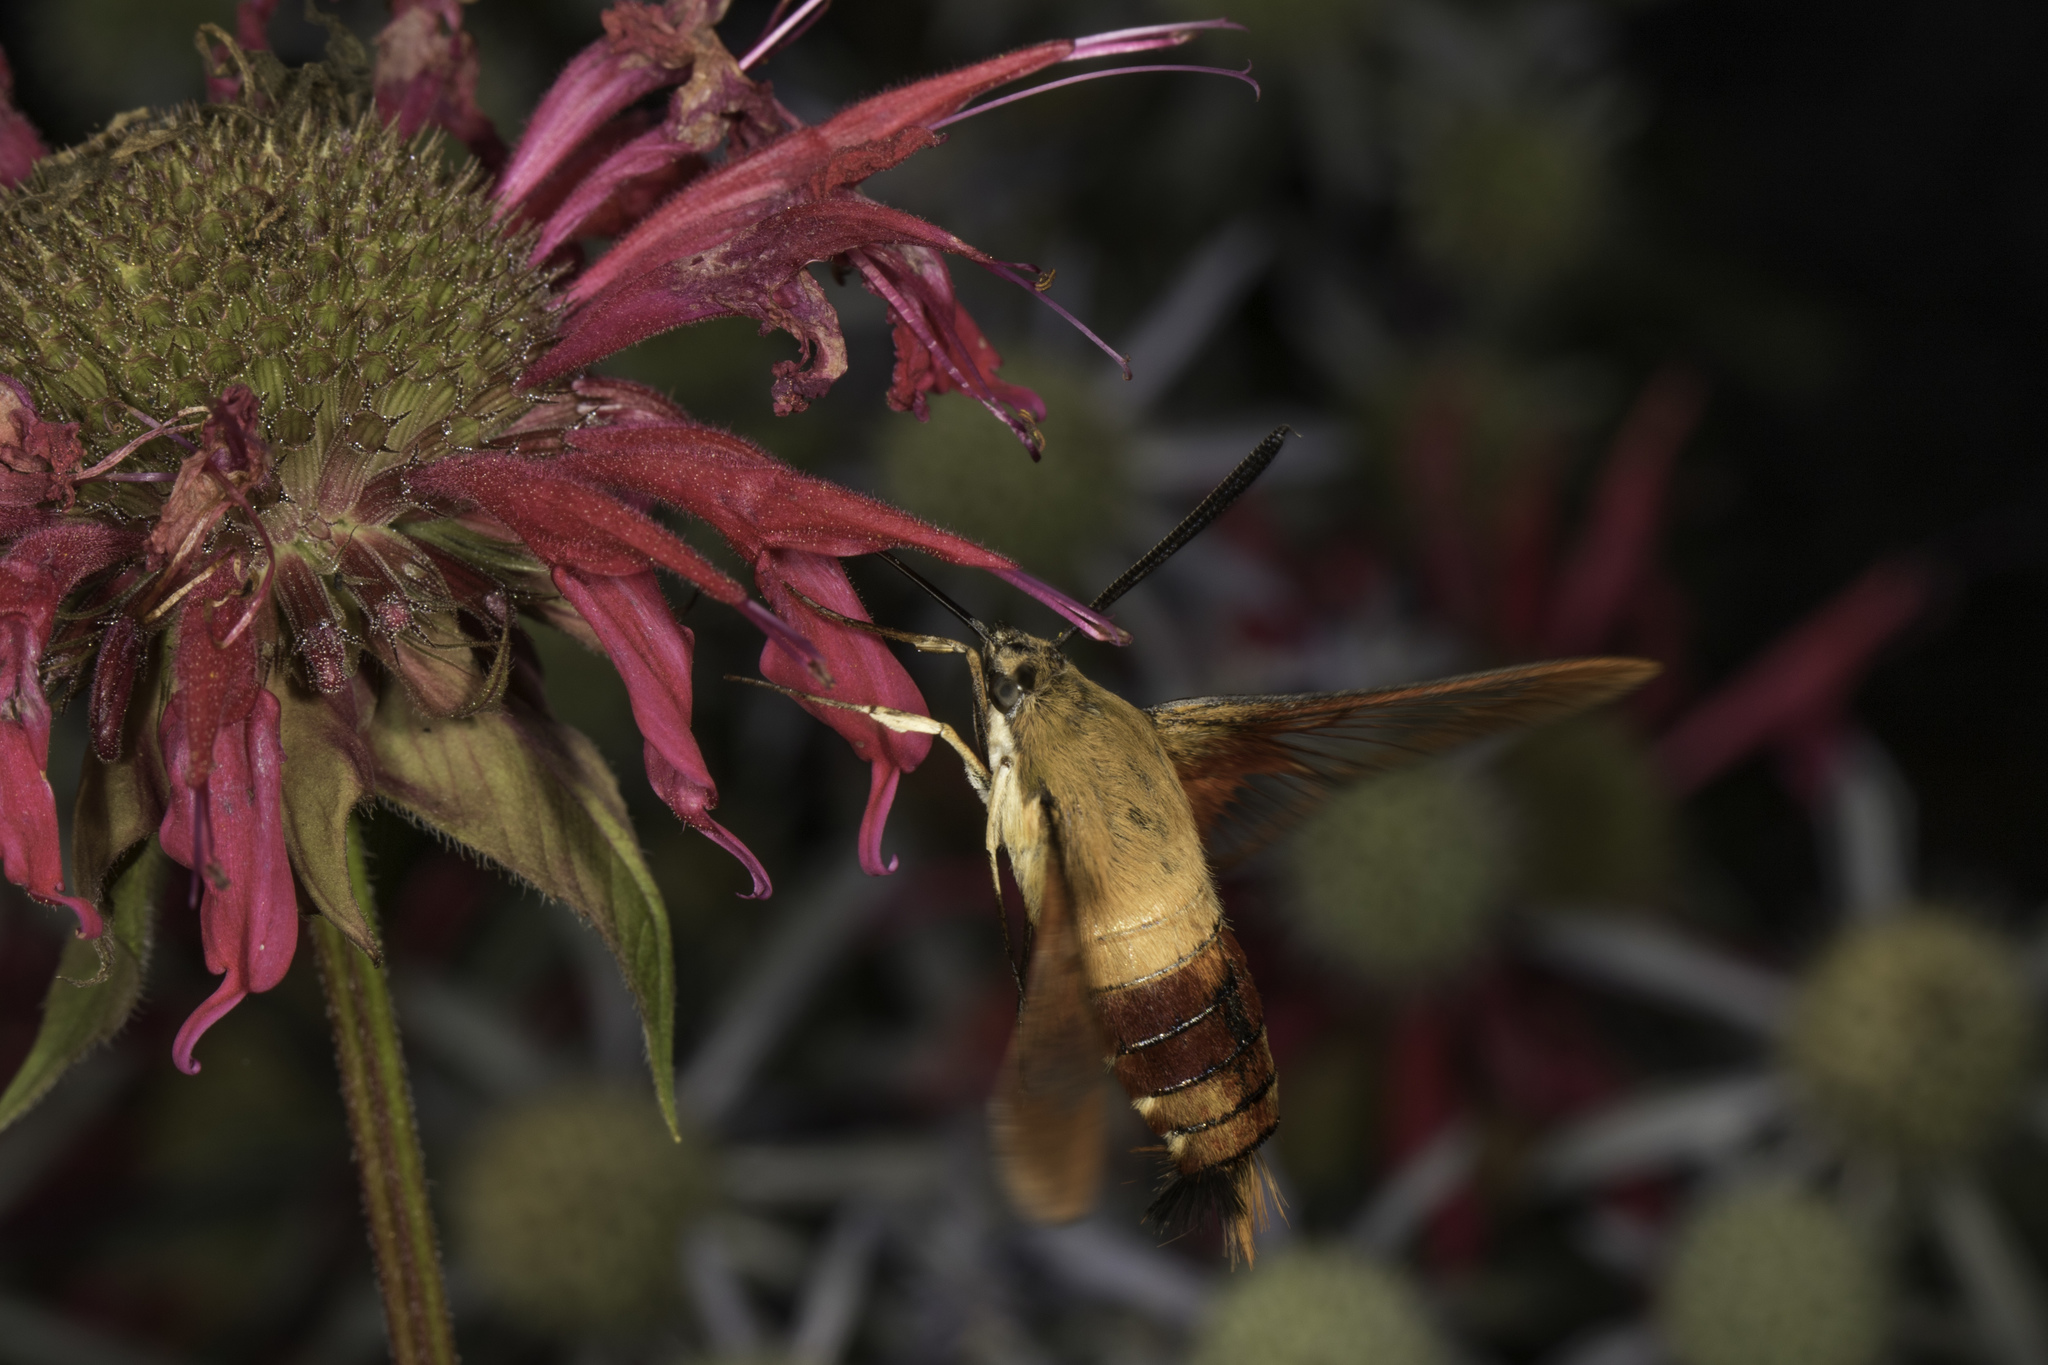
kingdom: Animalia
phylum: Arthropoda
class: Insecta
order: Lepidoptera
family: Sphingidae
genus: Hemaris
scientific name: Hemaris thysbe
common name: Common clear-wing
